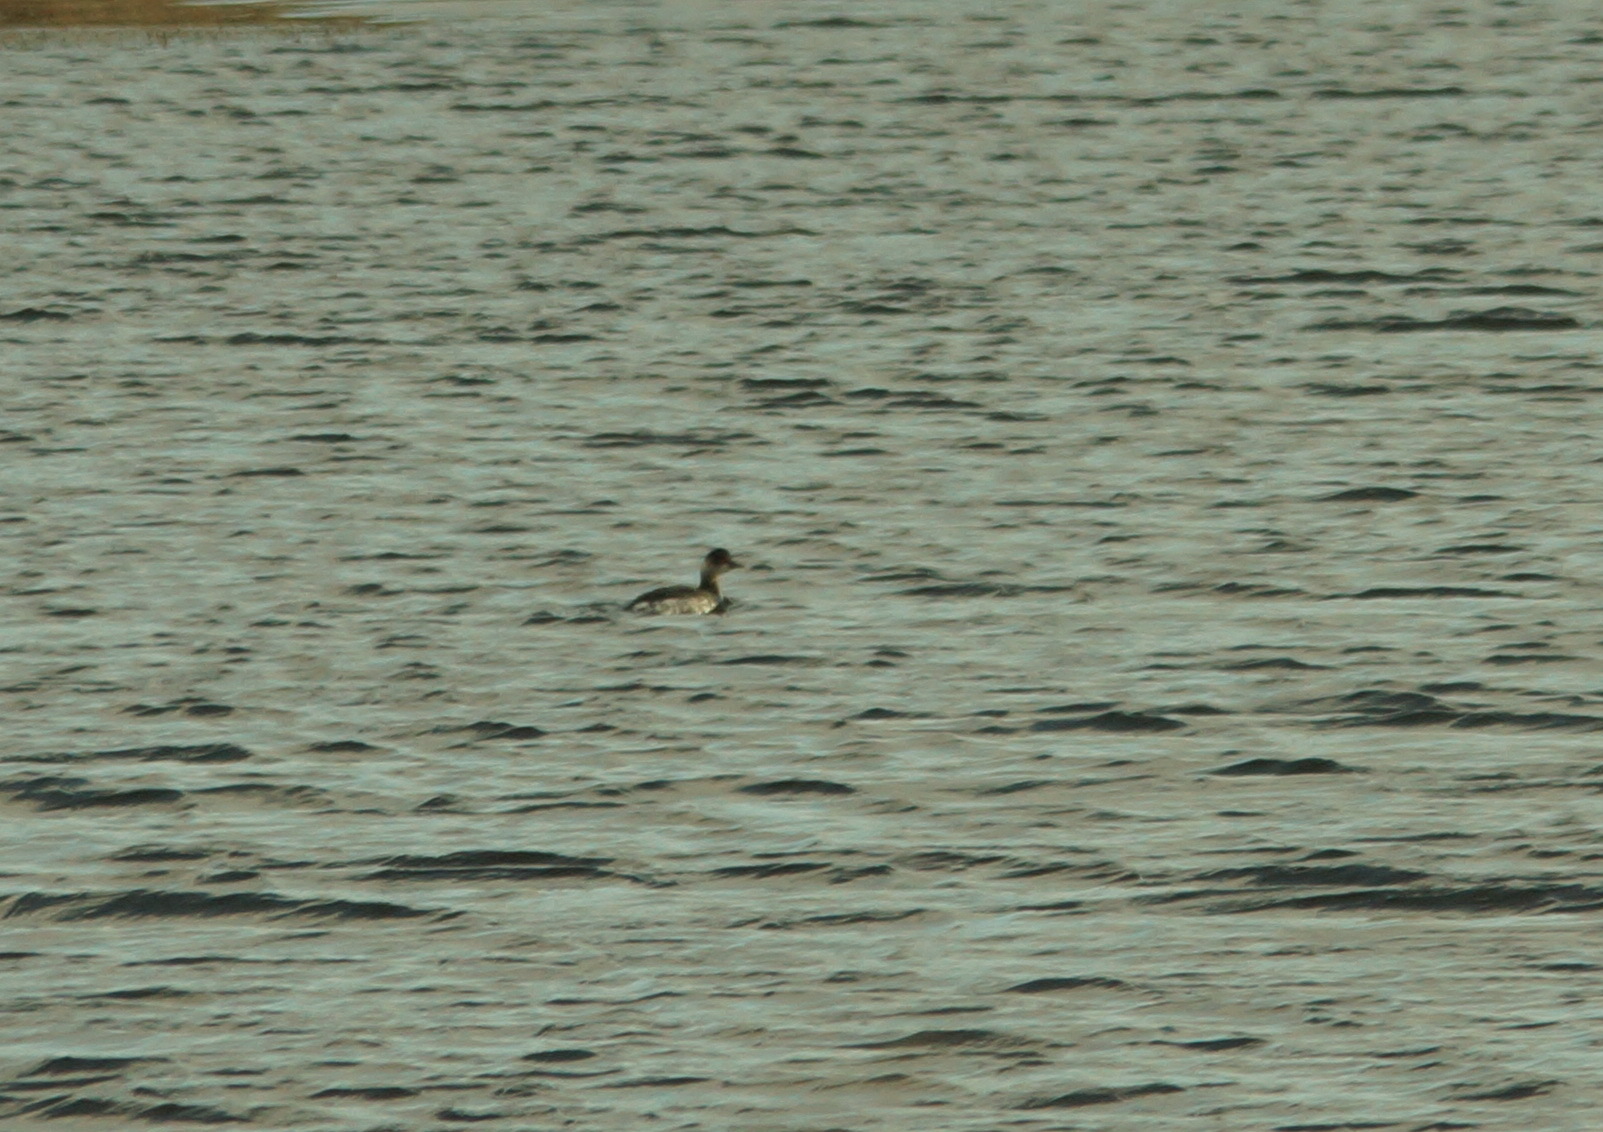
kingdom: Animalia
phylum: Chordata
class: Aves
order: Podicipediformes
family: Podicipedidae
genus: Podiceps
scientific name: Podiceps nigricollis
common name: Black-necked grebe
